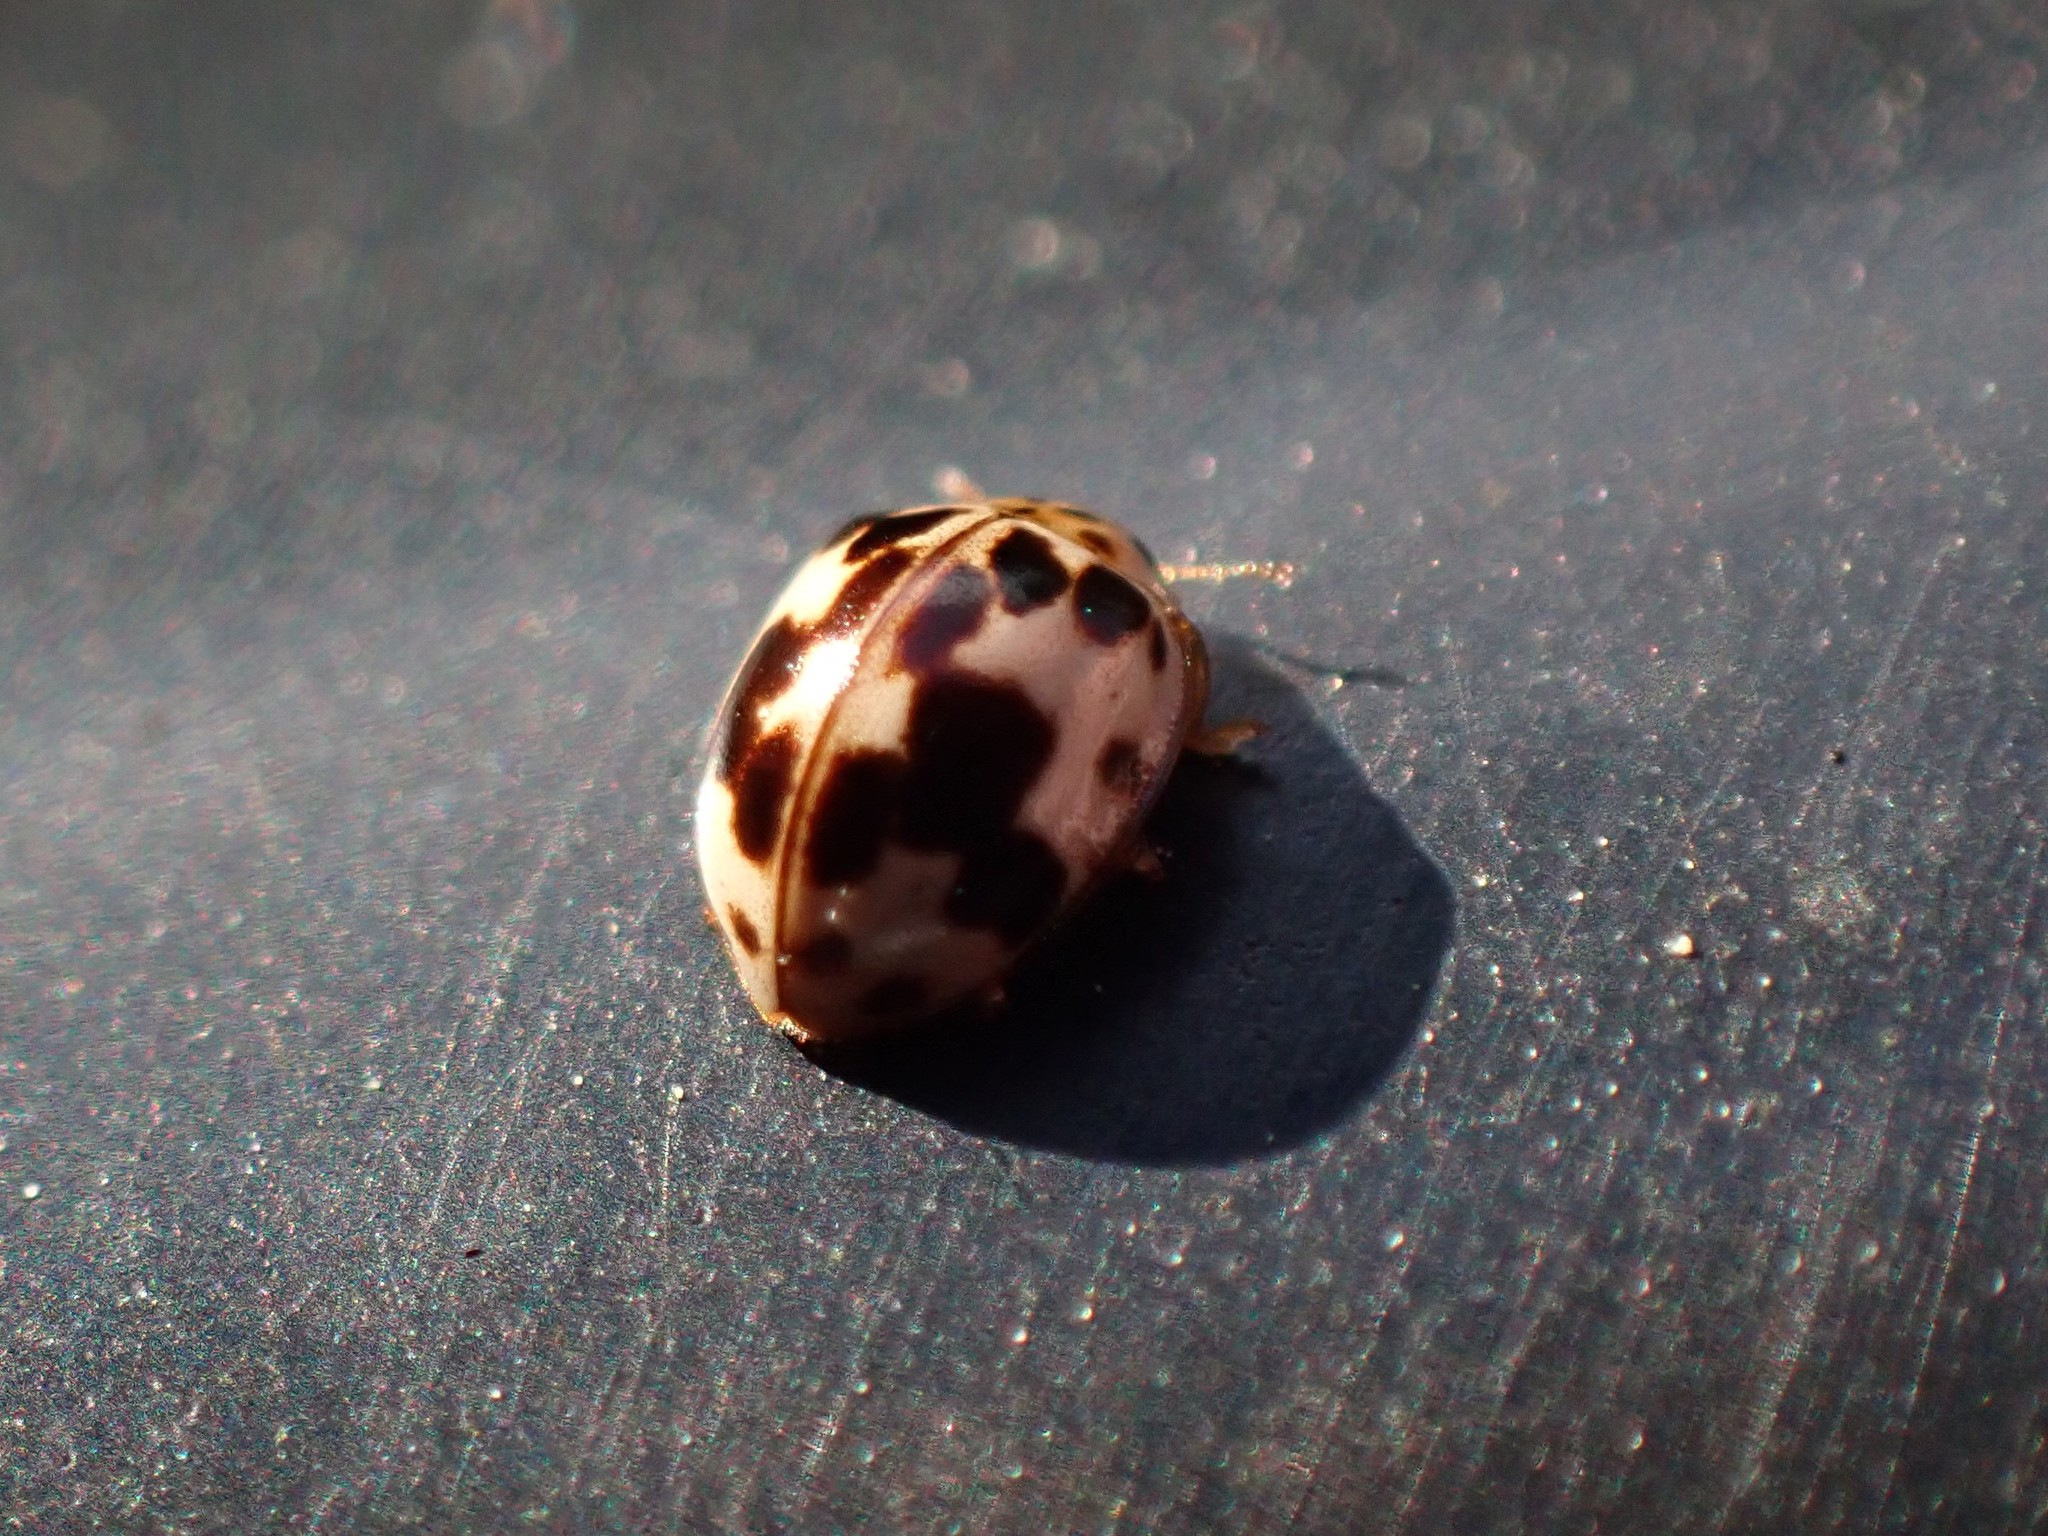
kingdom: Animalia
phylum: Arthropoda
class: Insecta
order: Coleoptera
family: Coccinellidae
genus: Psyllobora
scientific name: Psyllobora borealis
